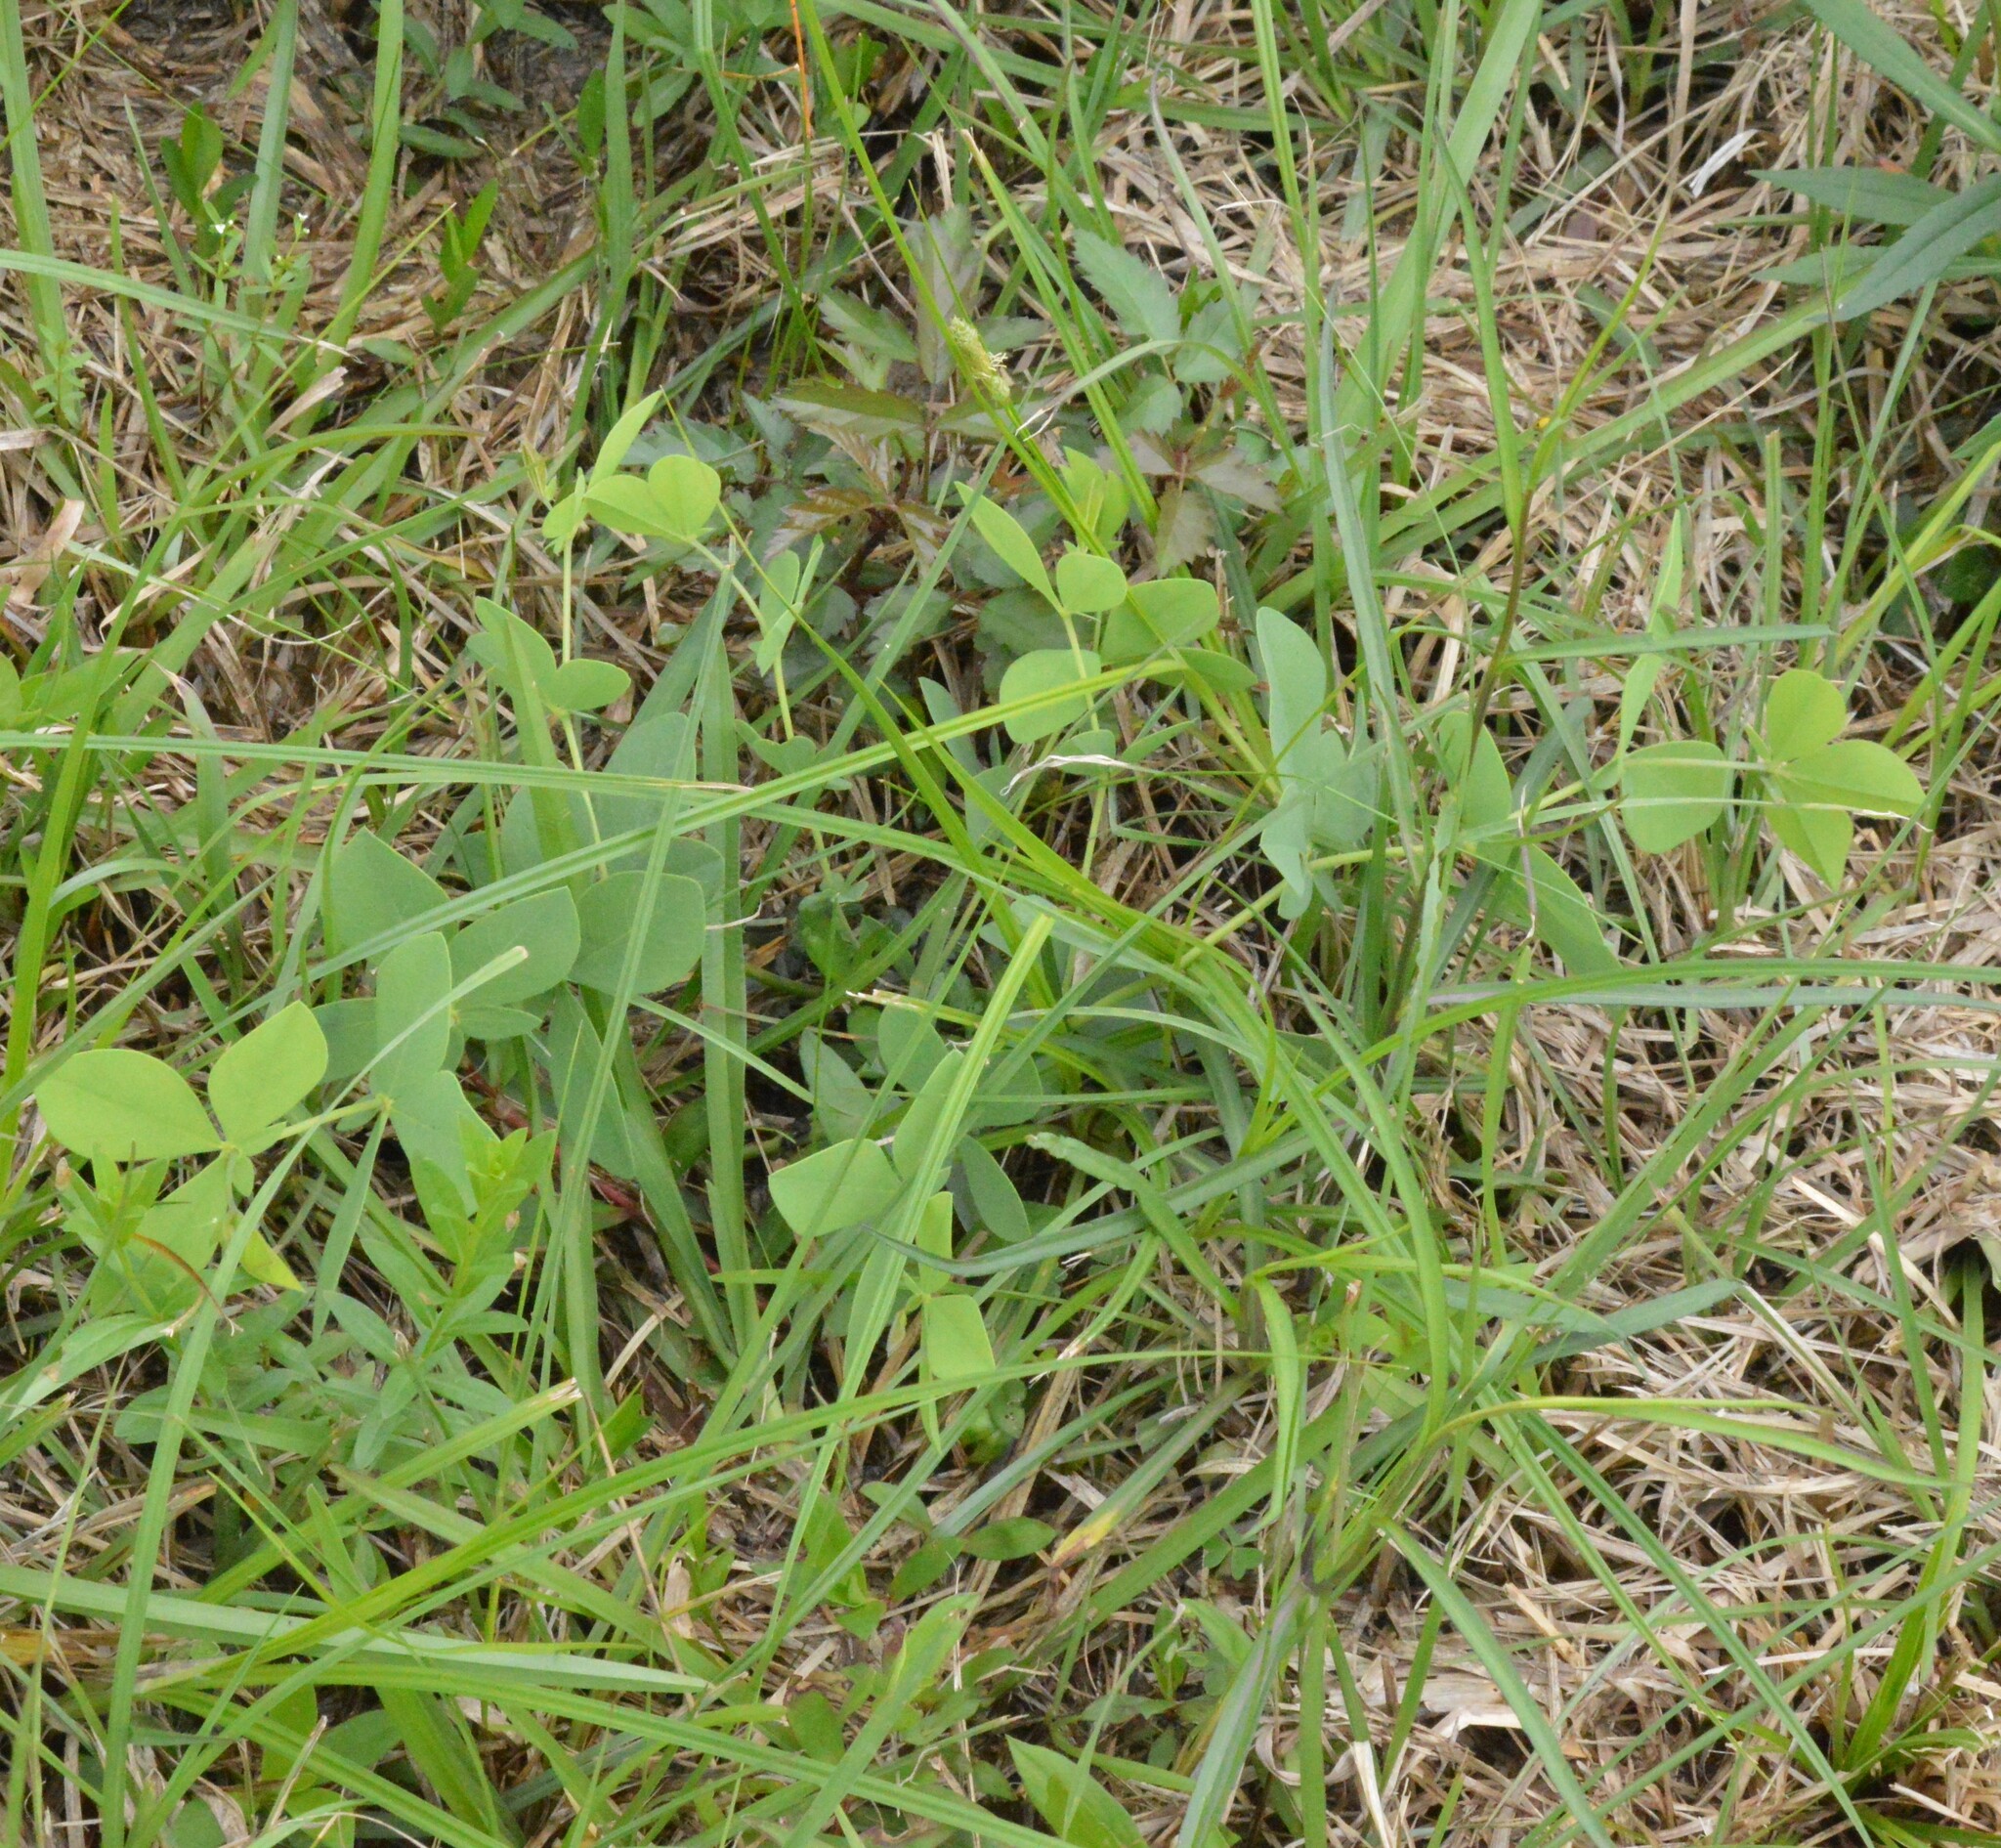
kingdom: Plantae
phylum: Tracheophyta
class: Magnoliopsida
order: Fabales
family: Fabaceae
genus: Baptisia
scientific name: Baptisia bracteata
